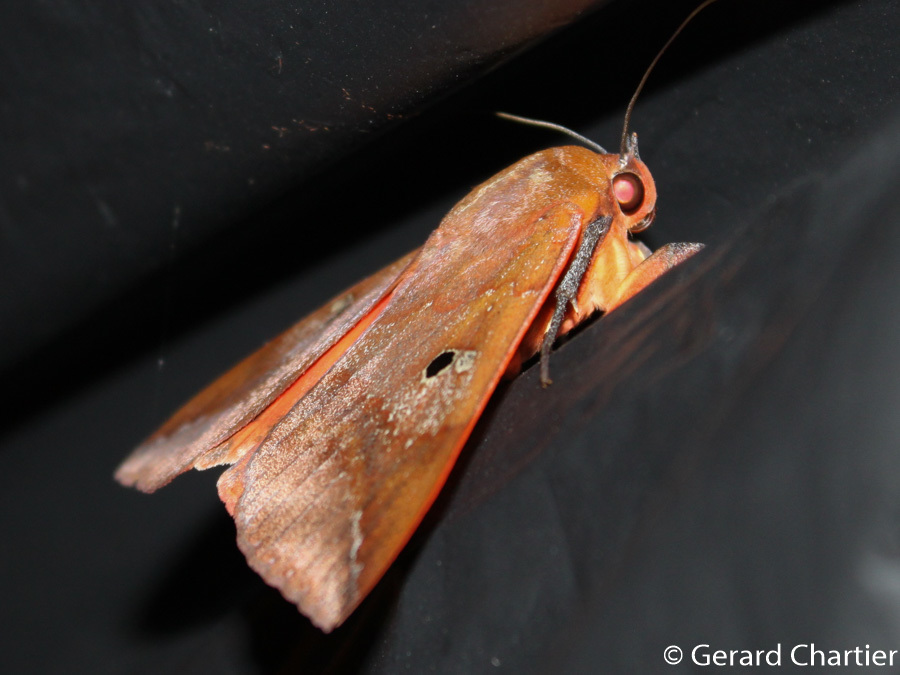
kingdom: Animalia
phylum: Arthropoda
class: Insecta
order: Lepidoptera
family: Erebidae
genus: Thyas
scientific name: Thyas honesta
